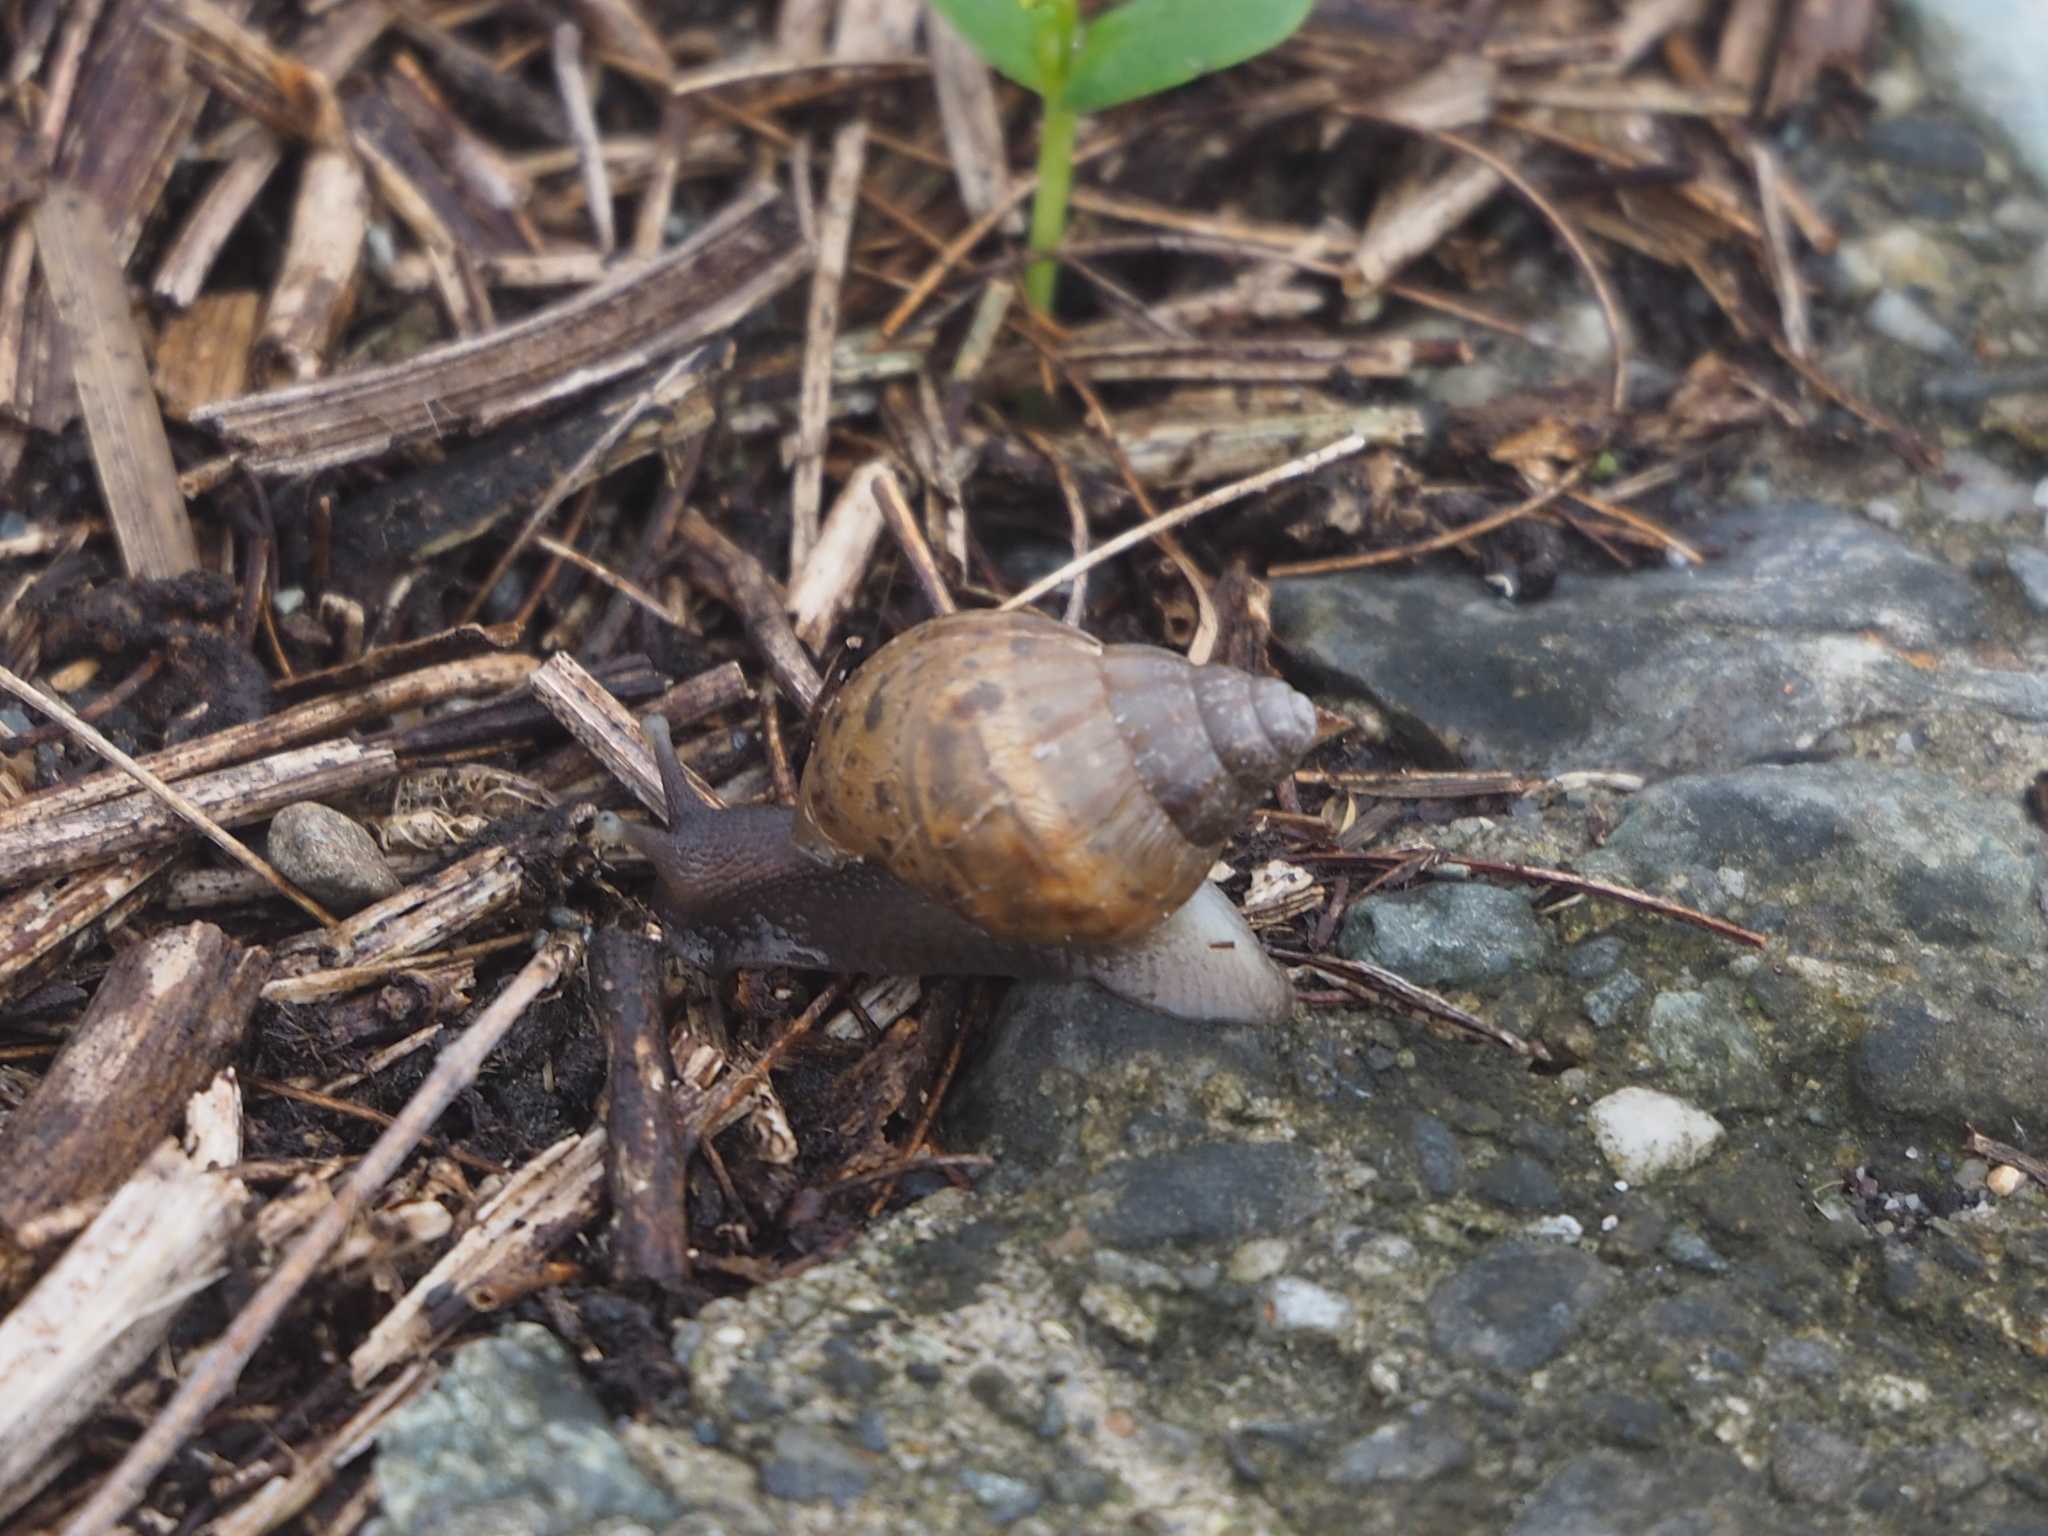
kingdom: Animalia
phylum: Mollusca
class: Gastropoda
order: Stylommatophora
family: Achatinidae
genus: Lissachatina
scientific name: Lissachatina fulica
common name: Giant african snail
